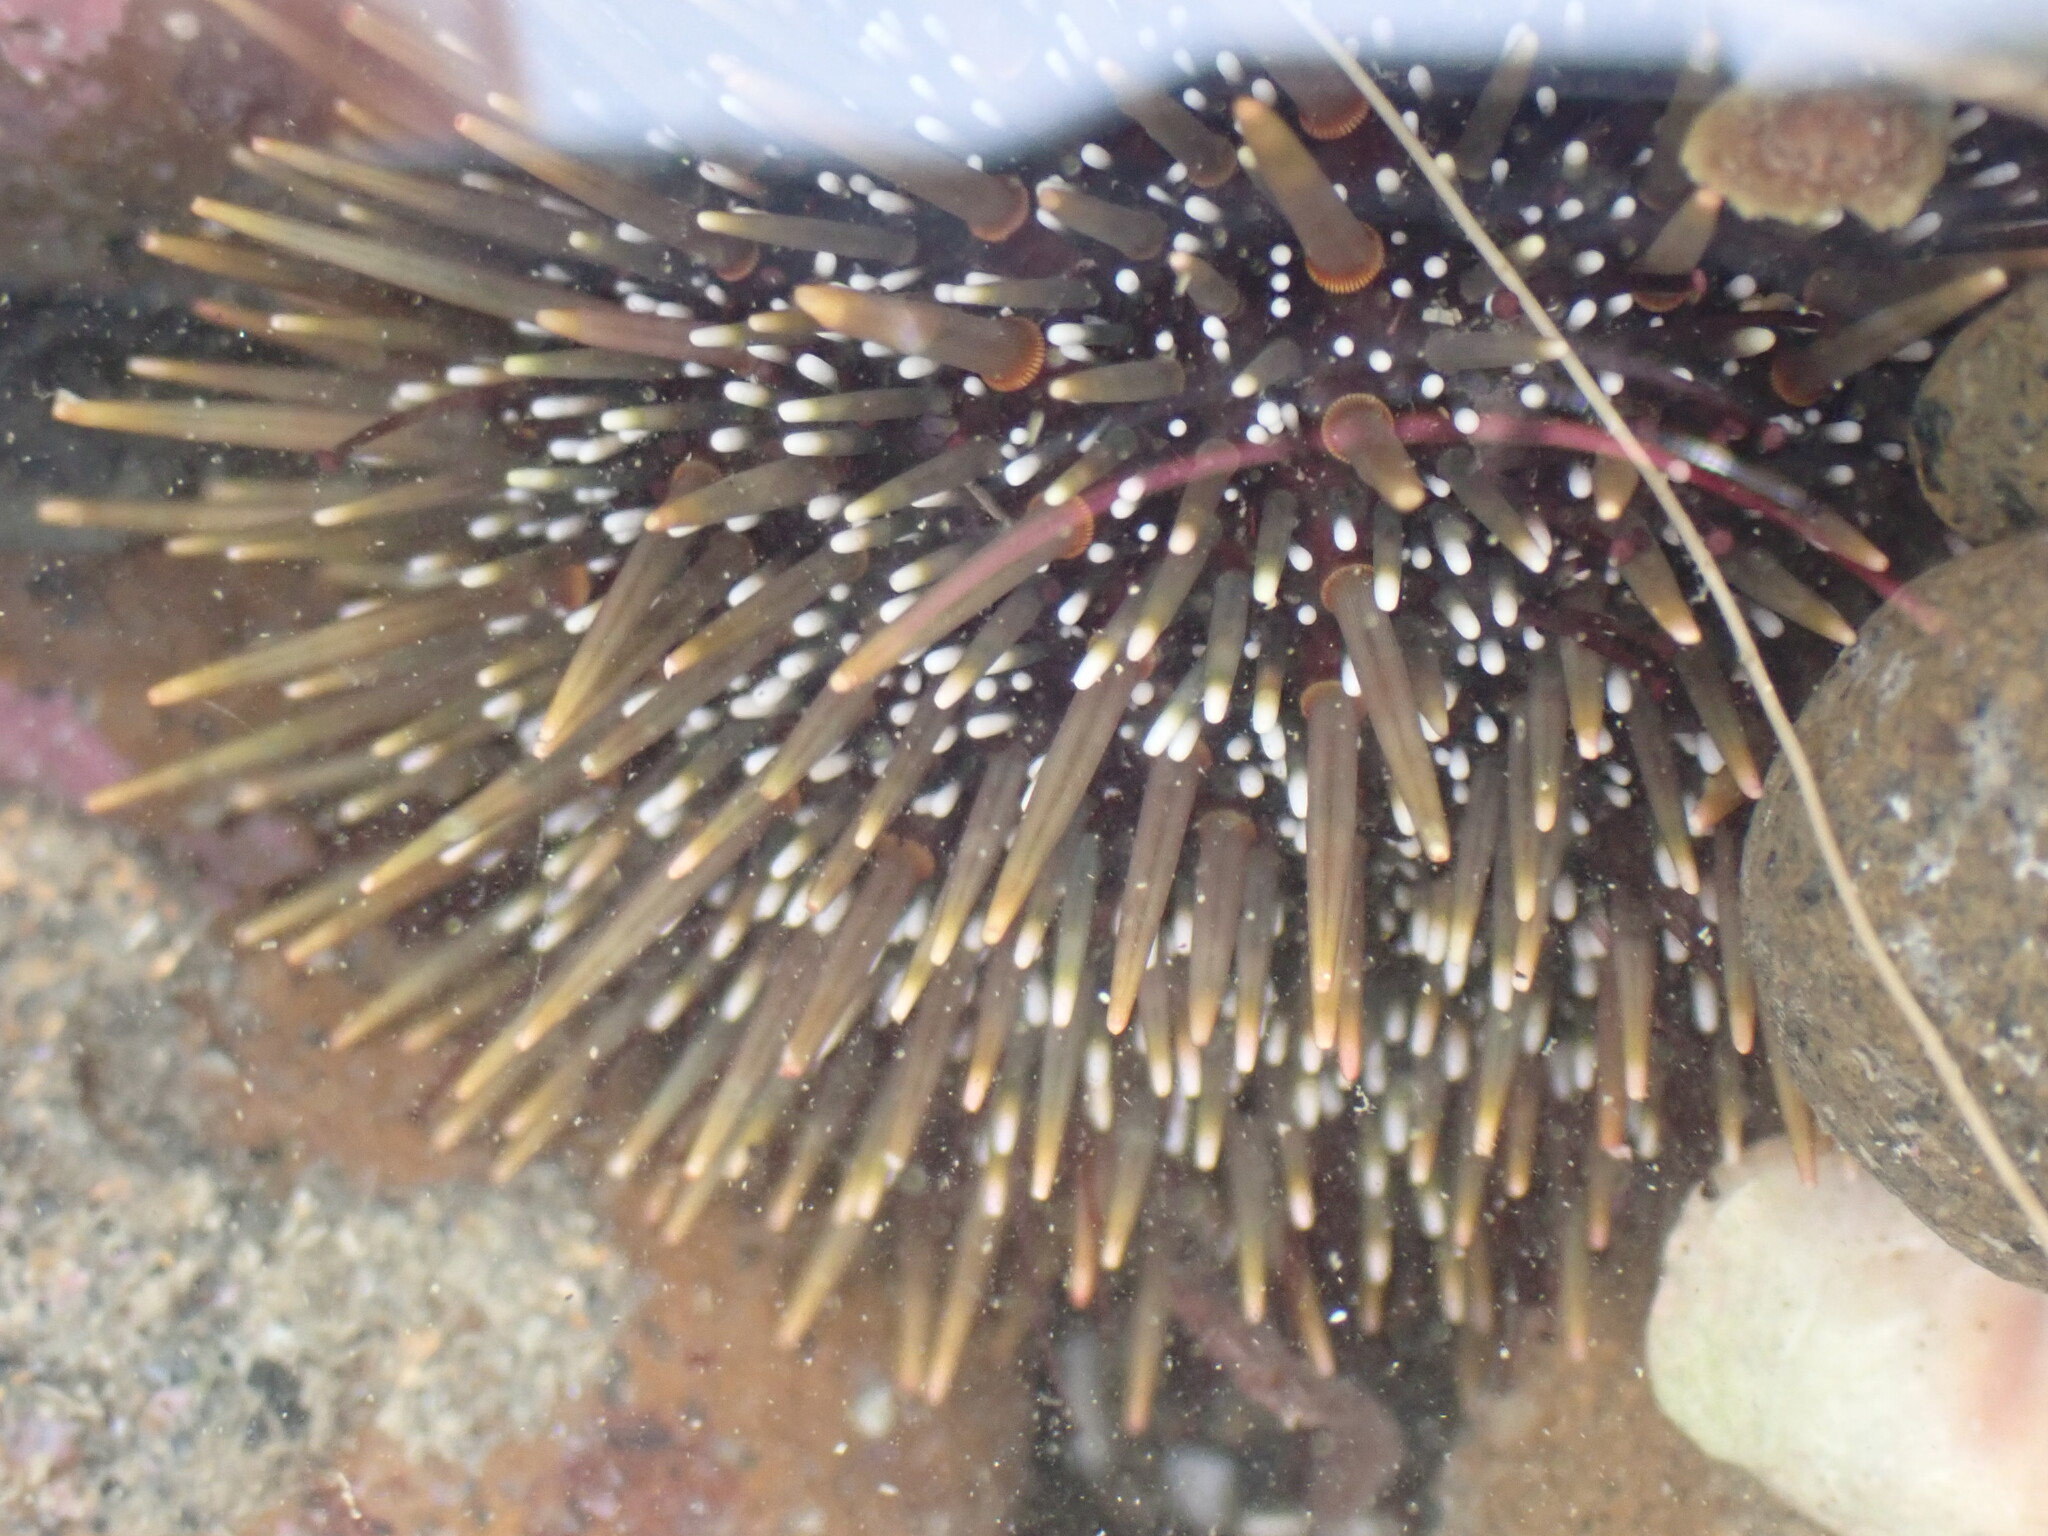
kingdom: Animalia
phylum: Echinodermata
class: Echinoidea
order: Camarodonta
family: Echinometridae
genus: Evechinus
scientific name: Evechinus chloroticus
